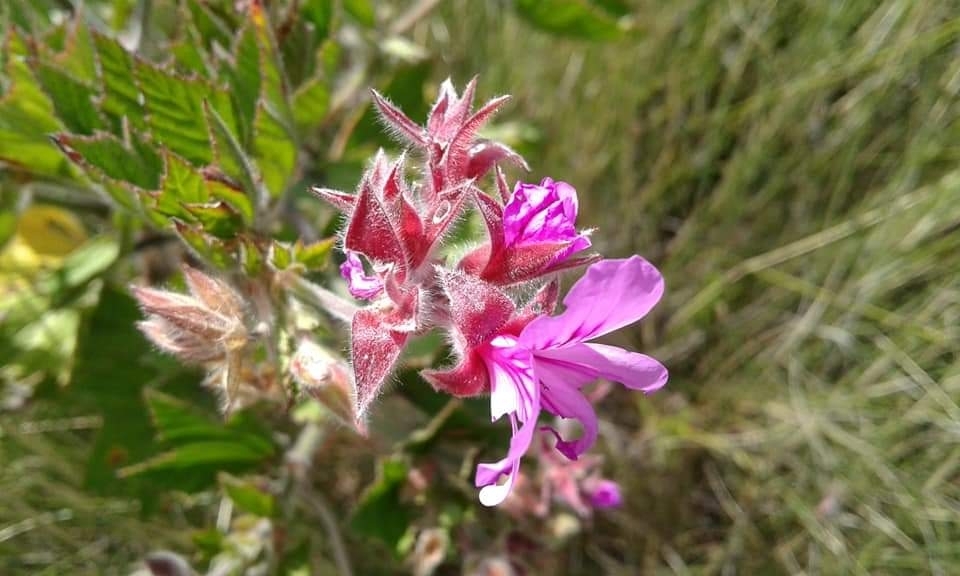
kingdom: Plantae
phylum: Tracheophyta
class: Magnoliopsida
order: Geraniales
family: Geraniaceae
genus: Pelargonium
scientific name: Pelargonium cucullatum
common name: Tree pelargonium
